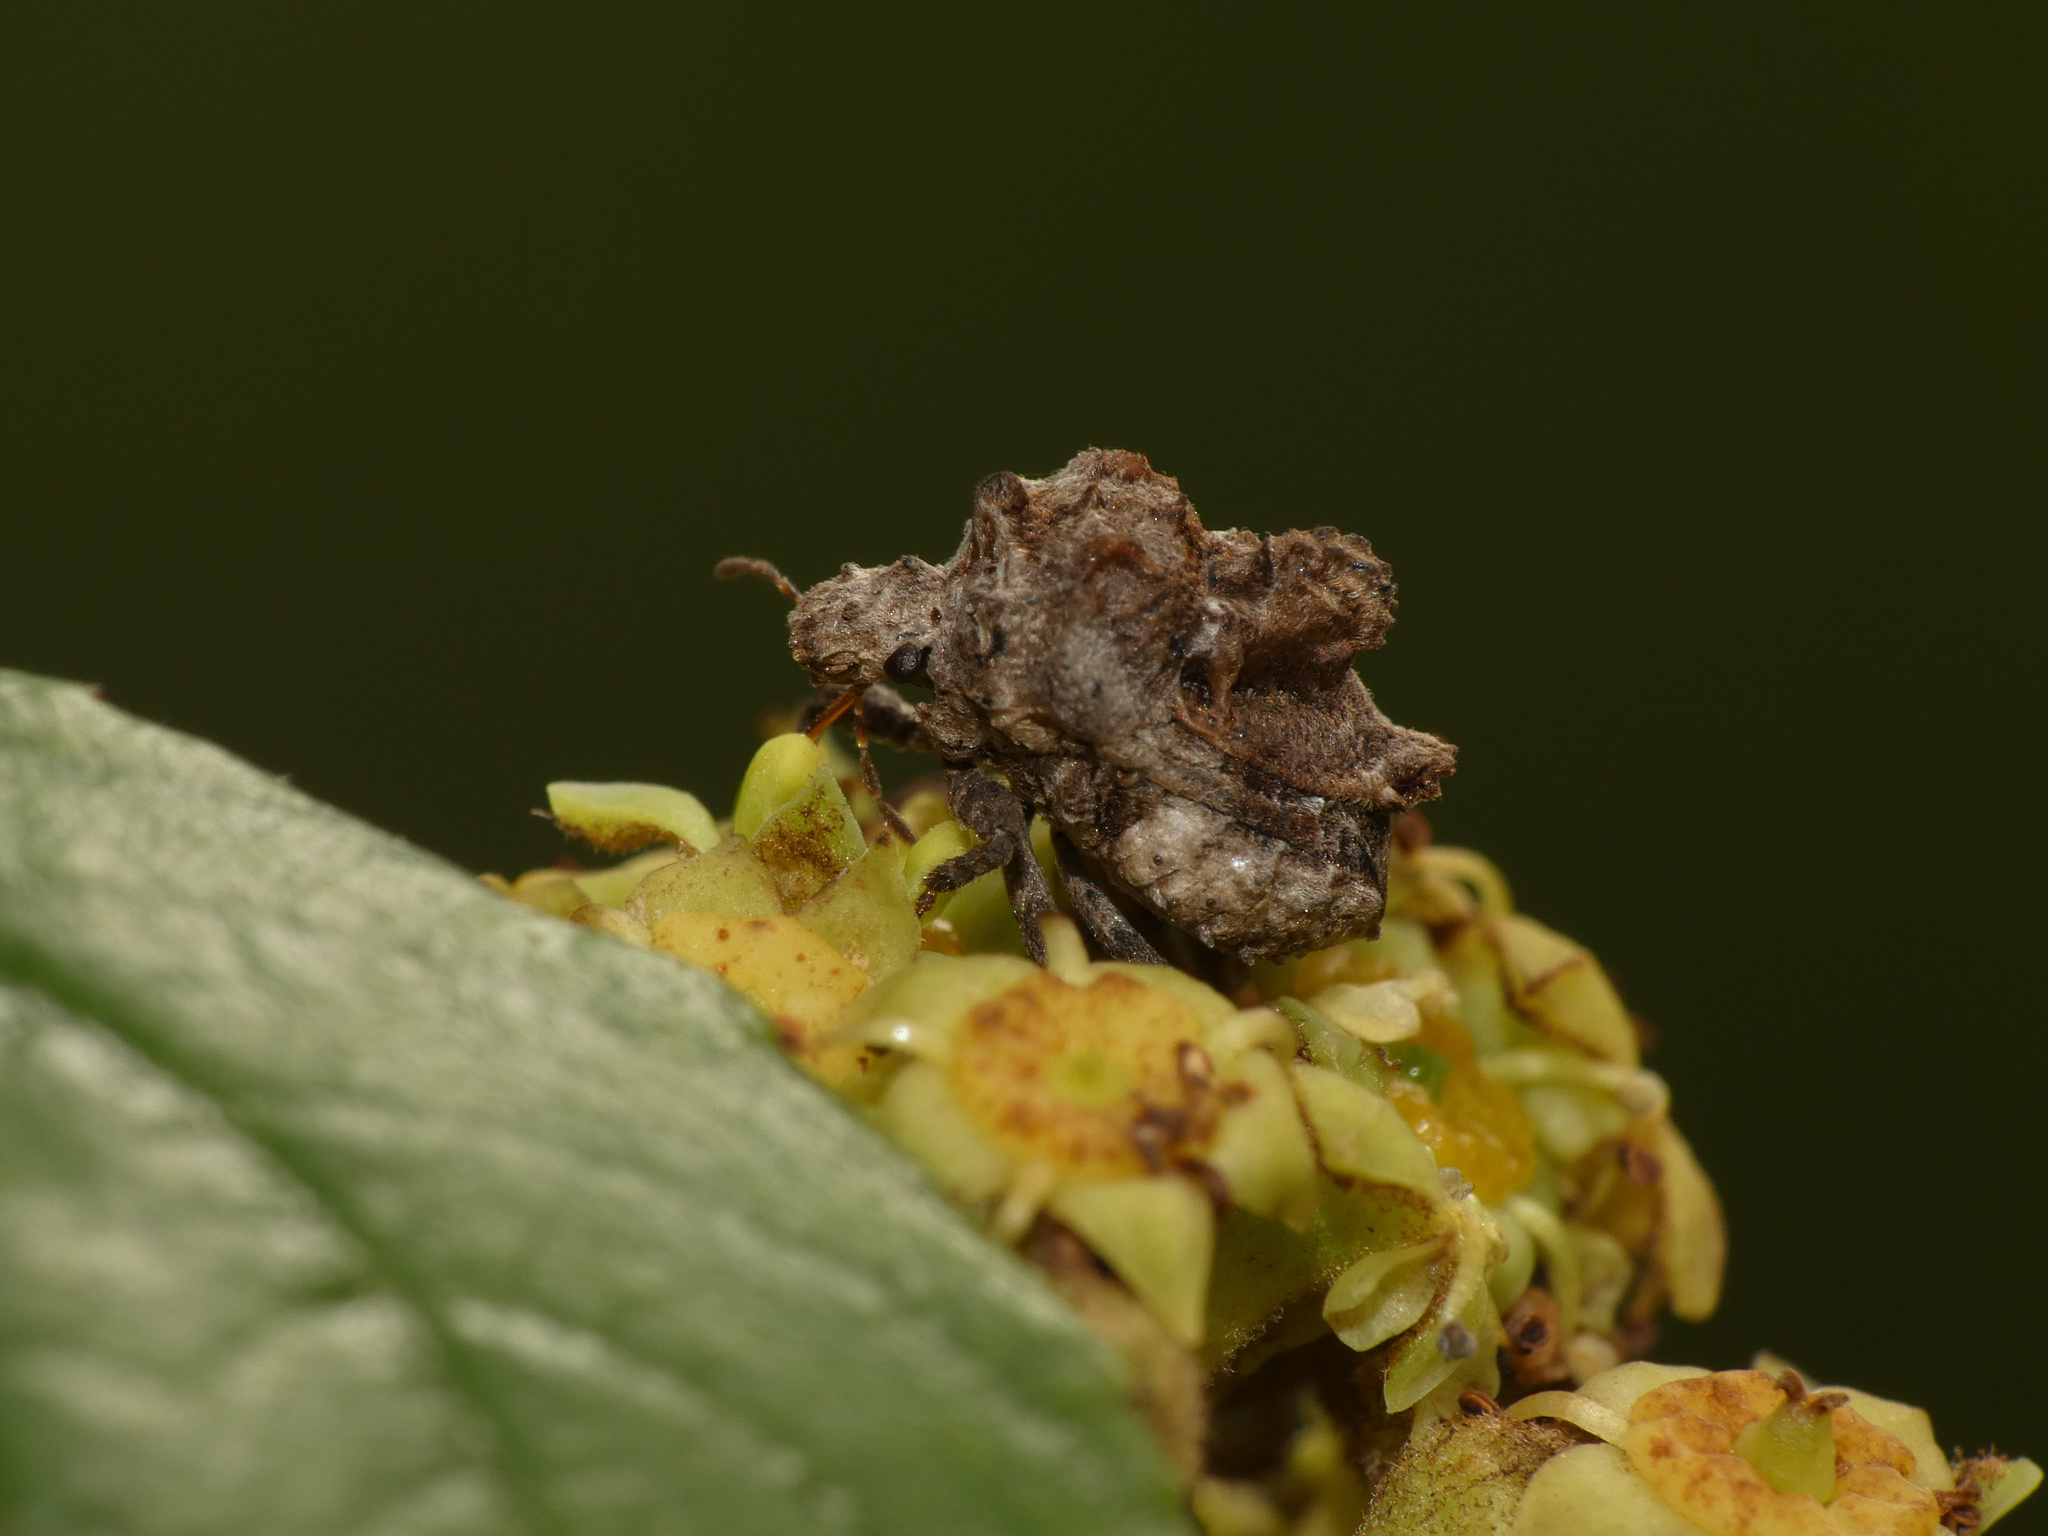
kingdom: Animalia
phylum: Arthropoda
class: Insecta
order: Hemiptera
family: Plataspidae
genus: Brachycerocoris
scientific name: Brachycerocoris
